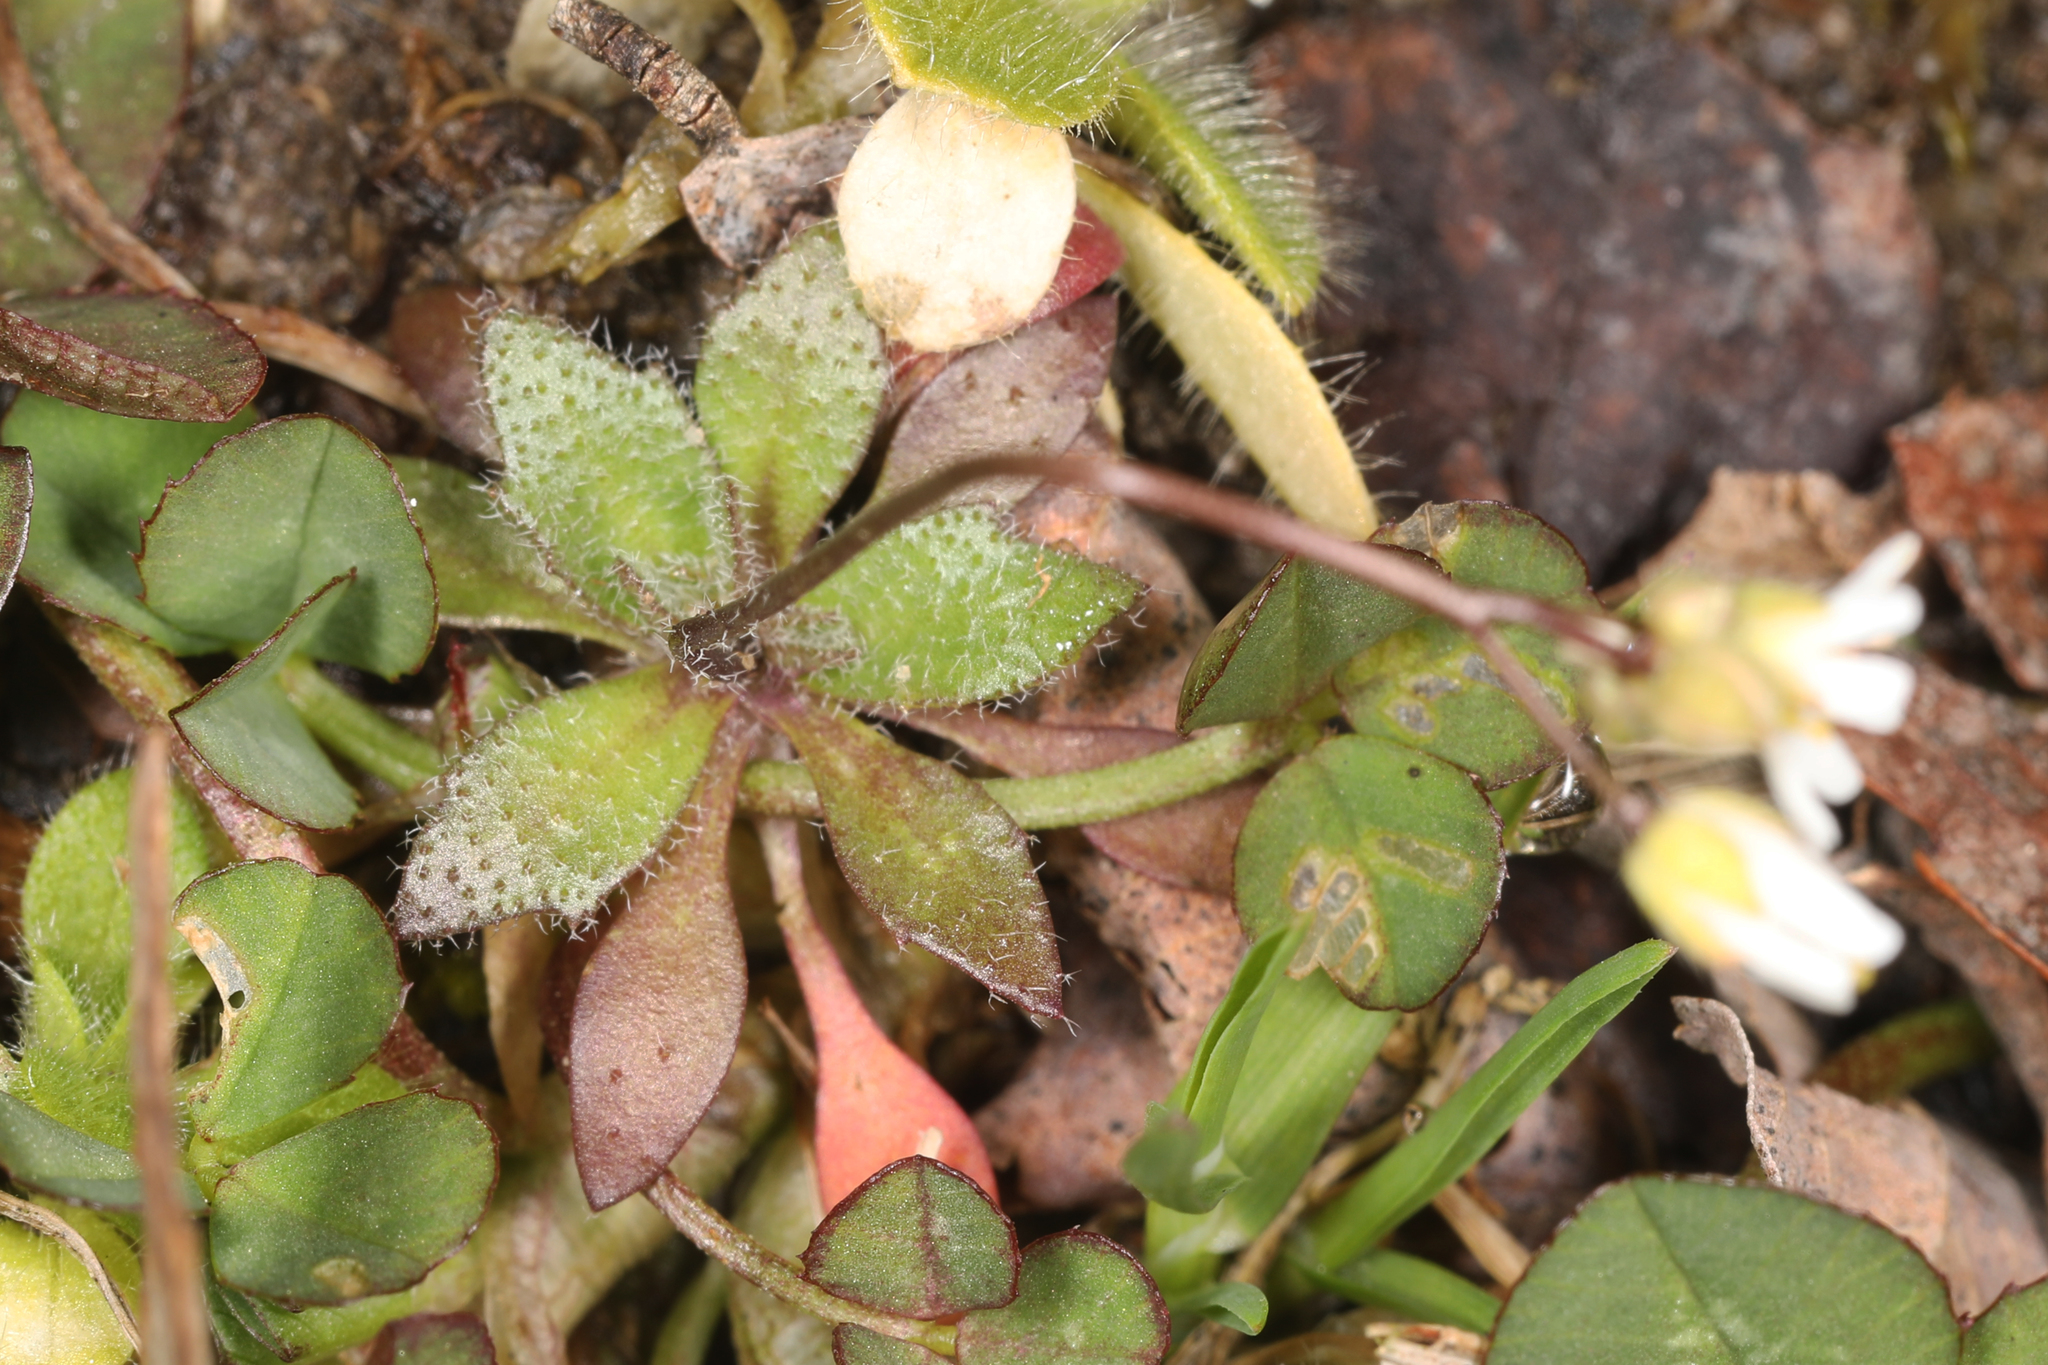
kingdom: Plantae
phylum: Tracheophyta
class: Magnoliopsida
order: Brassicales
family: Brassicaceae
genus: Draba
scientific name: Draba verna
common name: Spring draba
